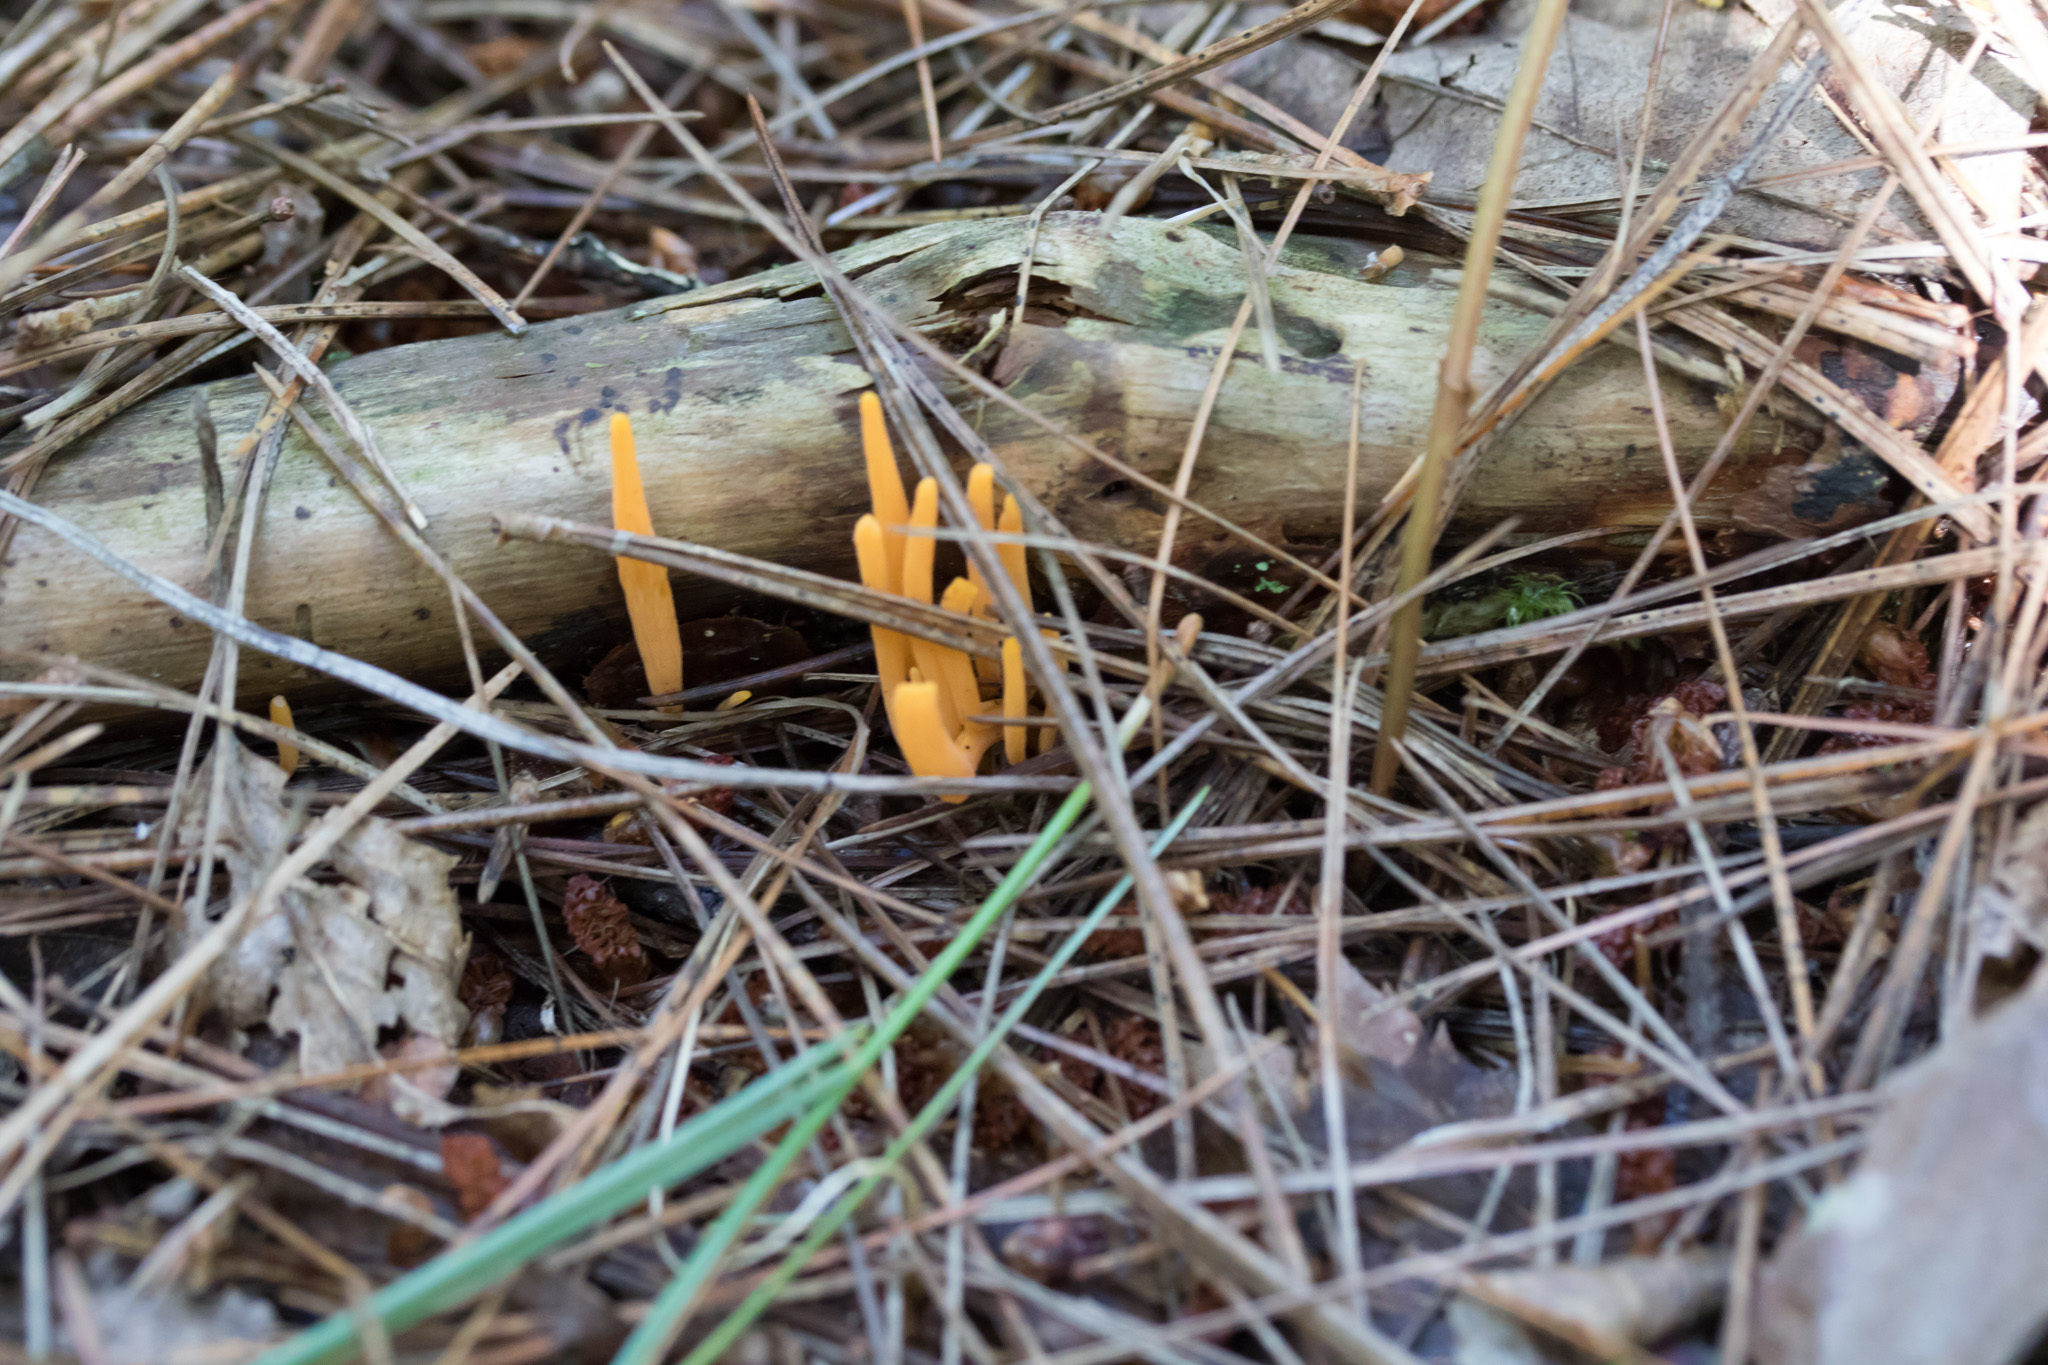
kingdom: Fungi
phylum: Basidiomycota
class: Agaricomycetes
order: Agaricales
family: Clavariaceae
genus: Clavulinopsis
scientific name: Clavulinopsis aurantiocinnabarina
